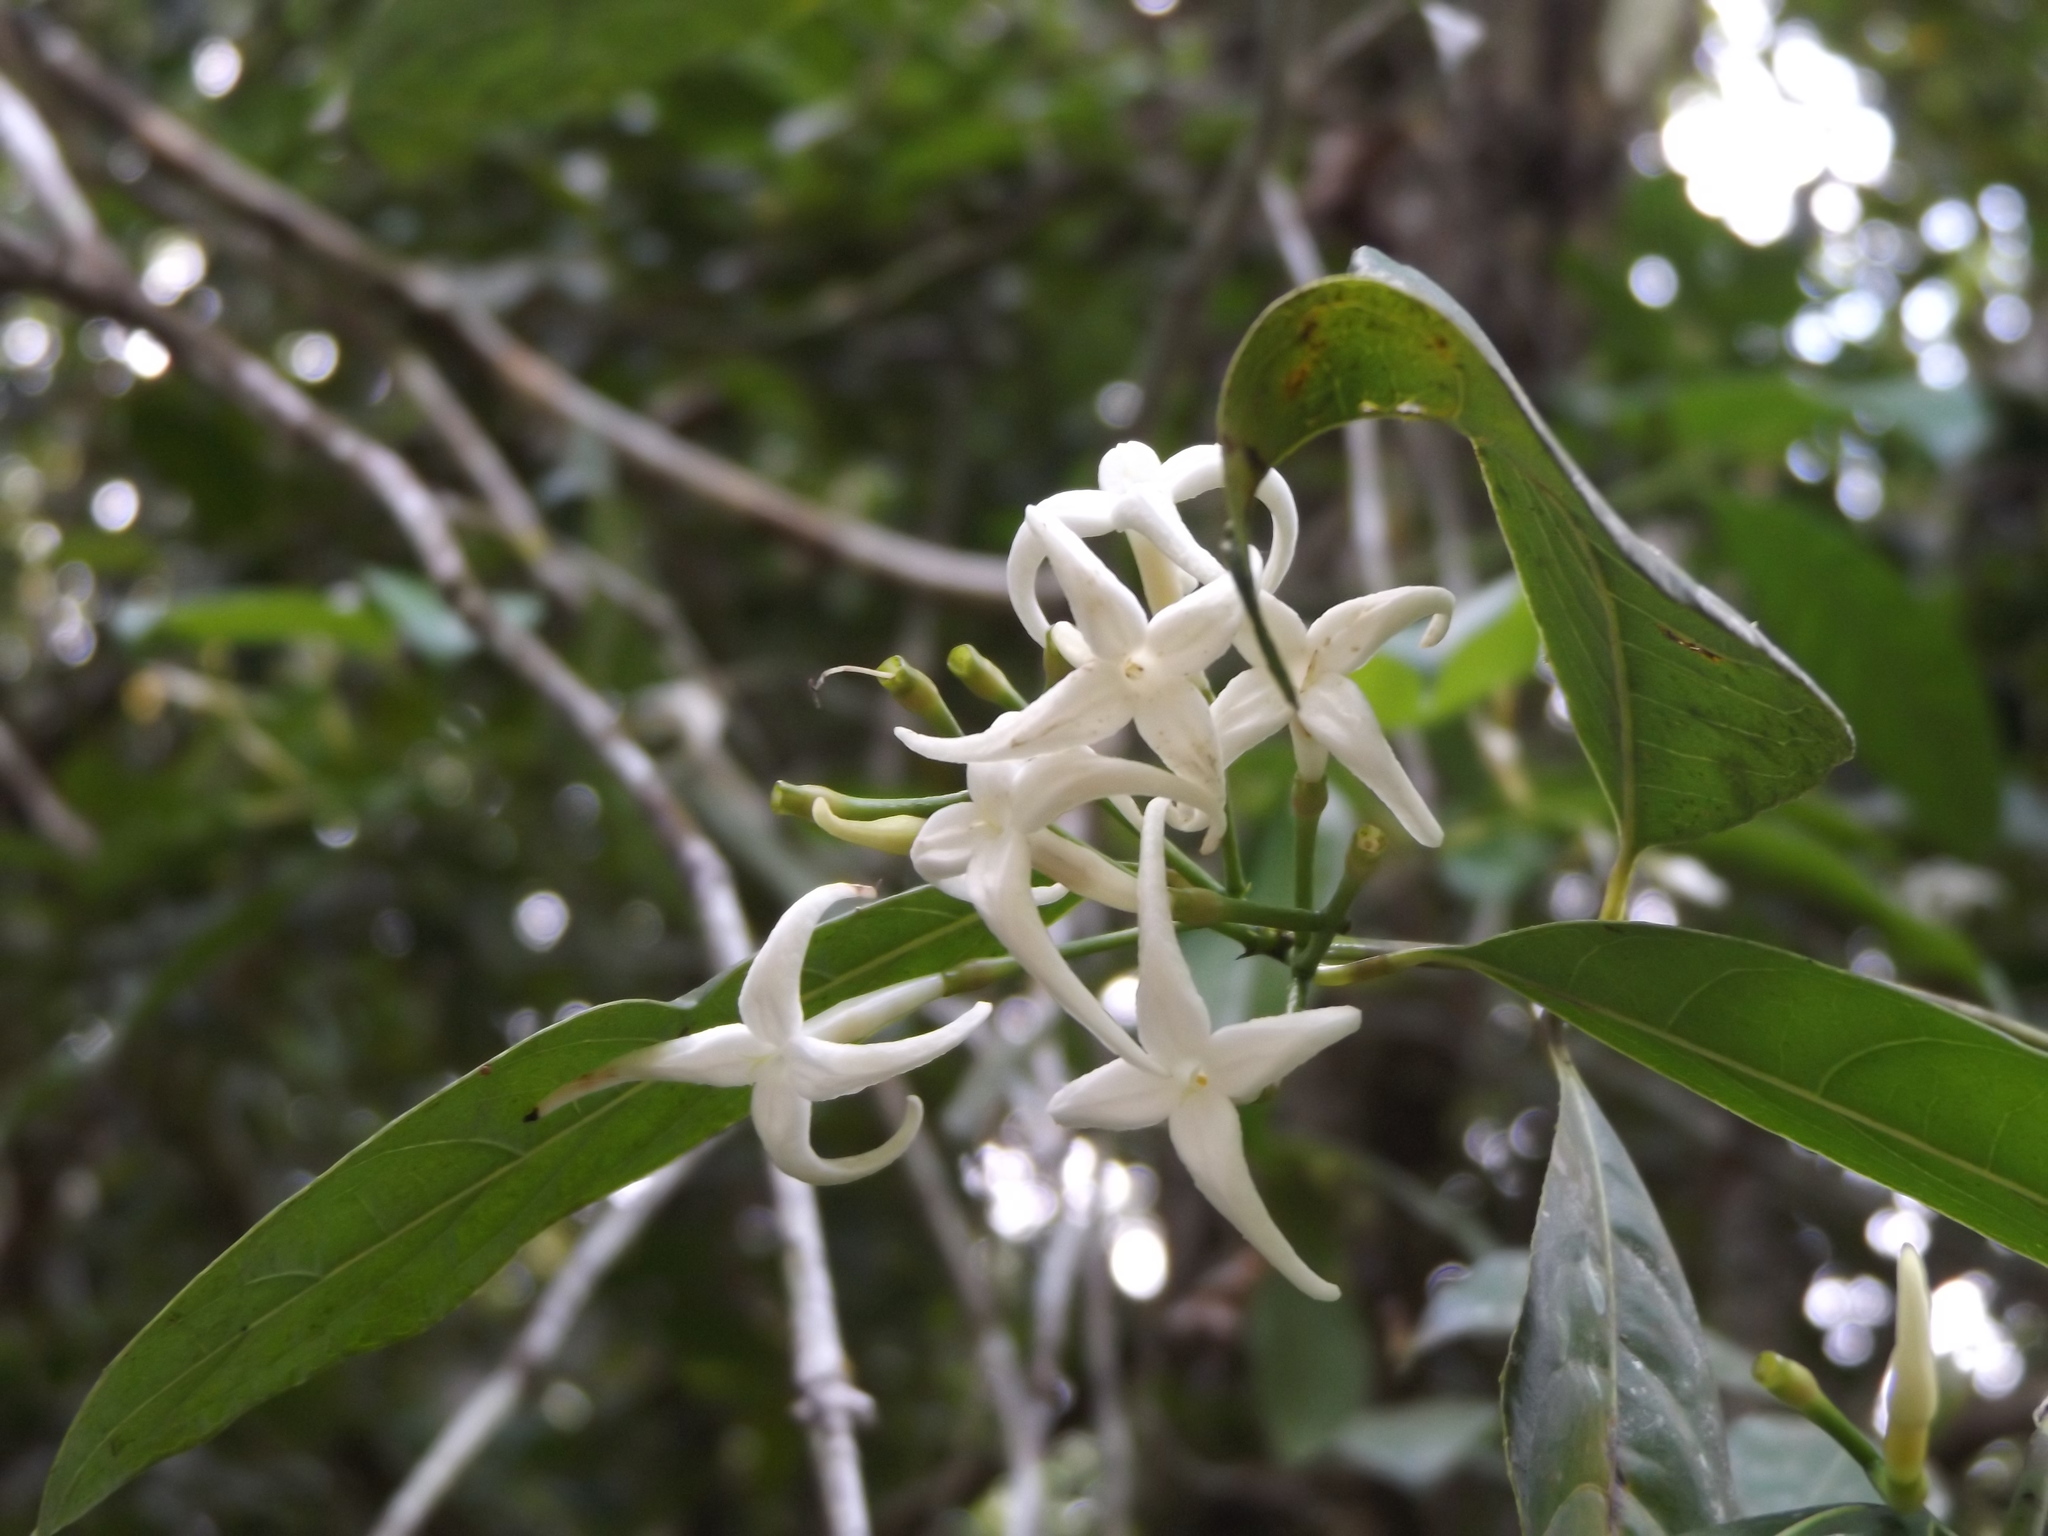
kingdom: Plantae
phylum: Tracheophyta
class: Magnoliopsida
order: Gentianales
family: Rubiaceae
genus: Faramea
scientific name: Faramea occidentalis
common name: False coffee
